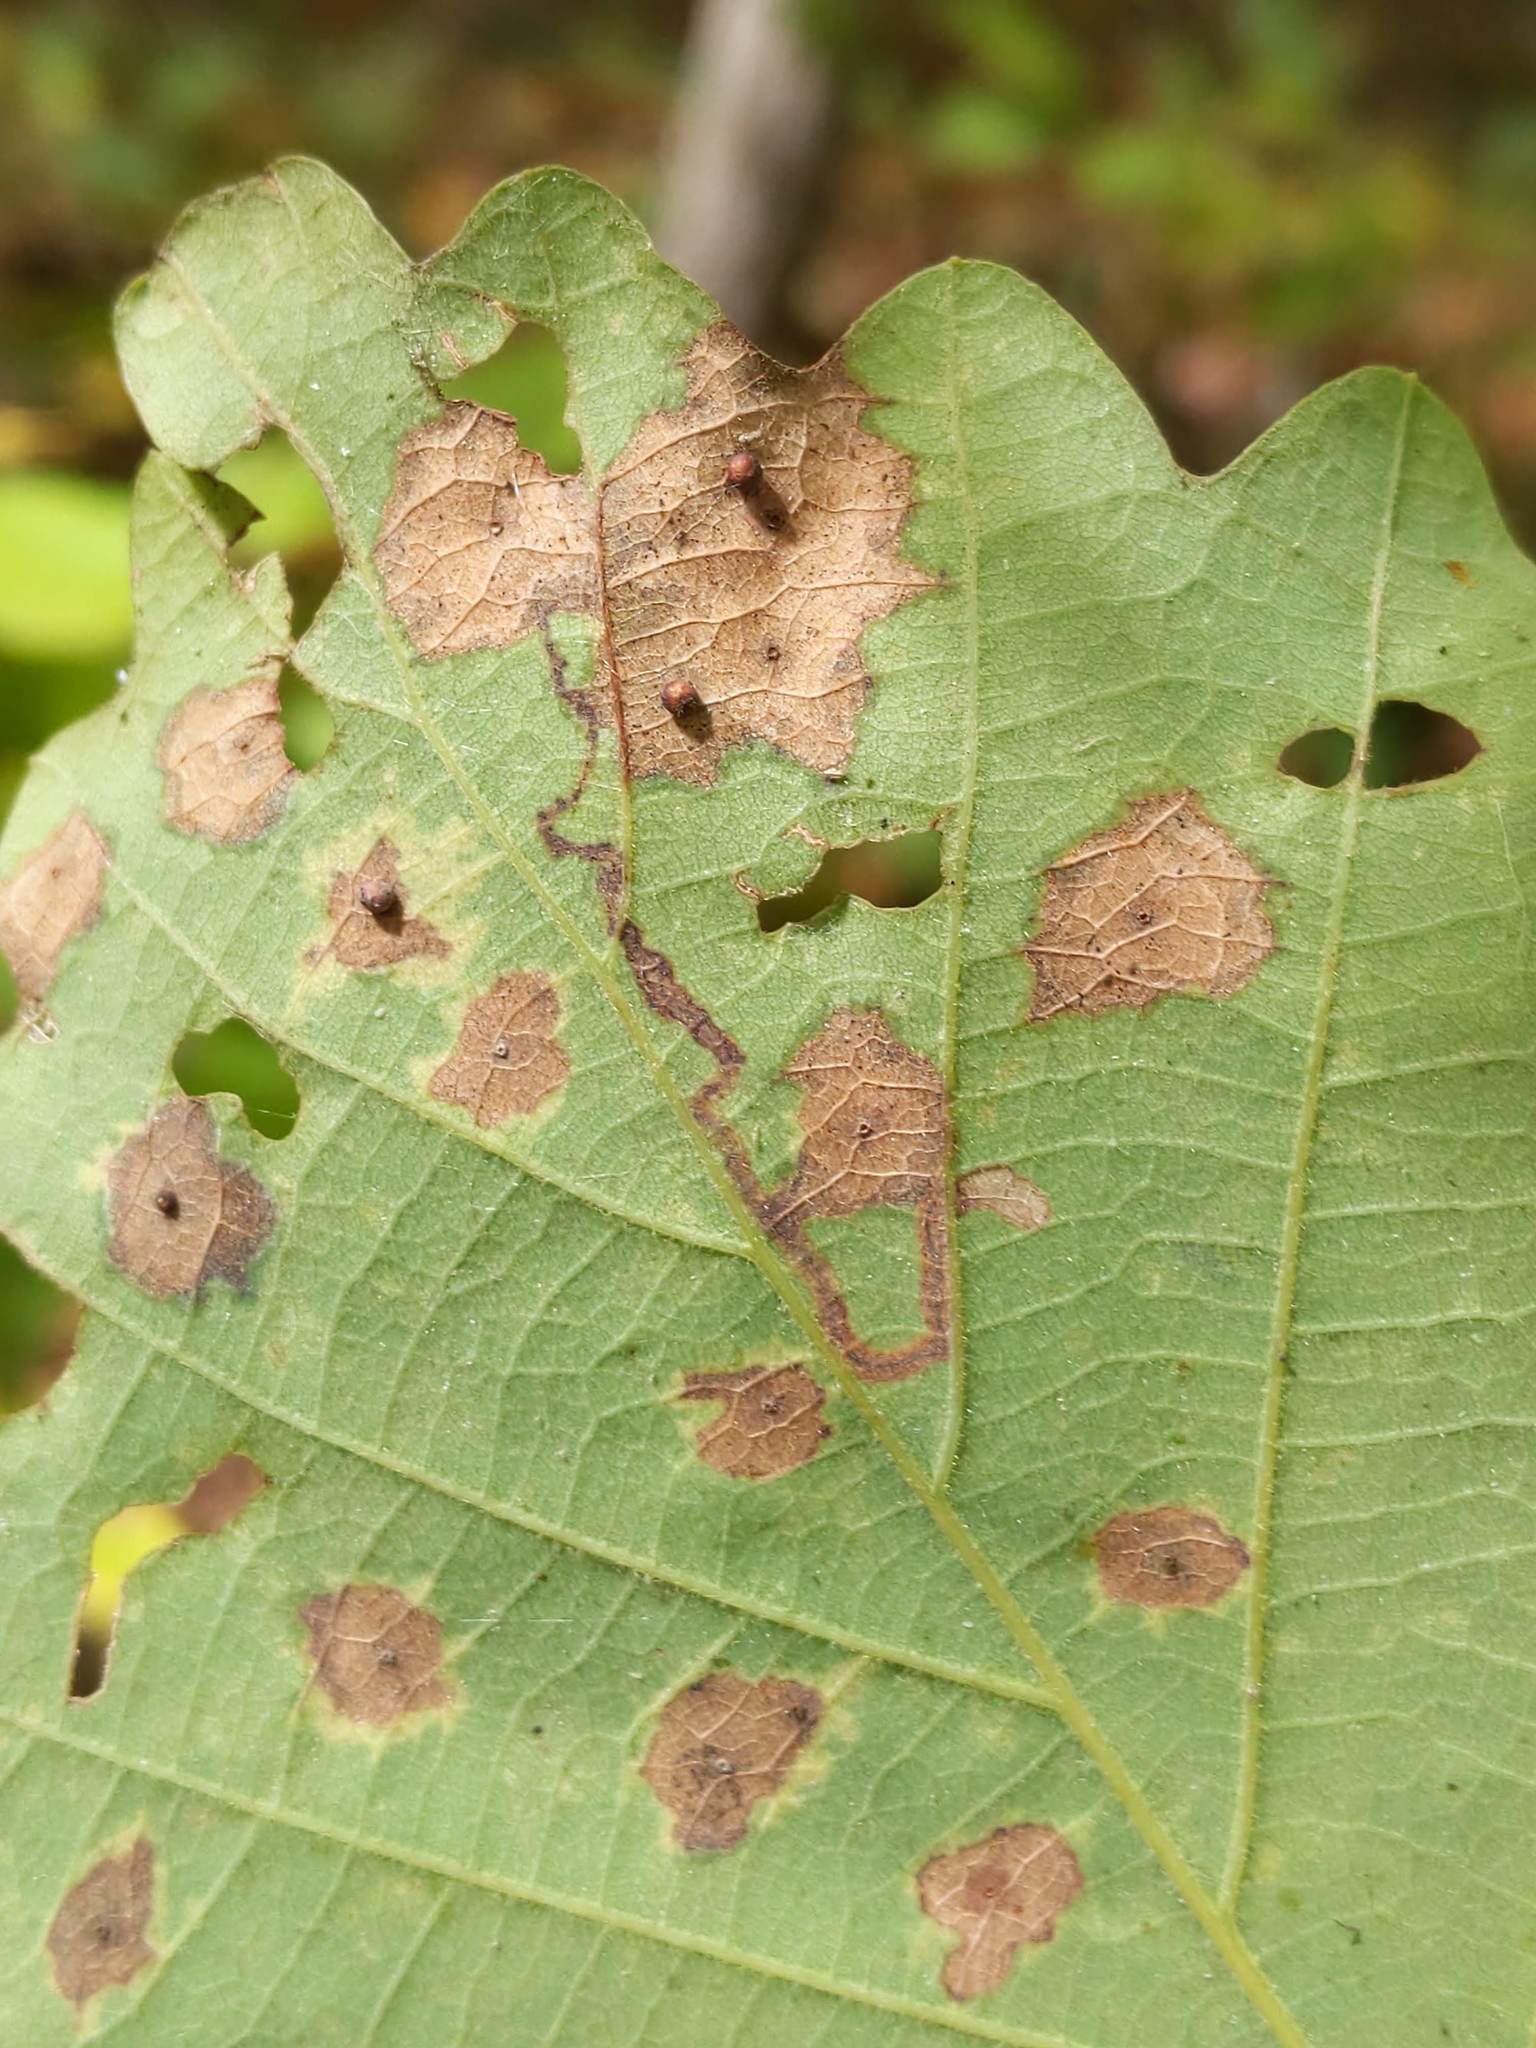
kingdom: Animalia
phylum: Arthropoda
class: Insecta
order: Lepidoptera
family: Nepticulidae
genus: Stigmella
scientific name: Stigmella
